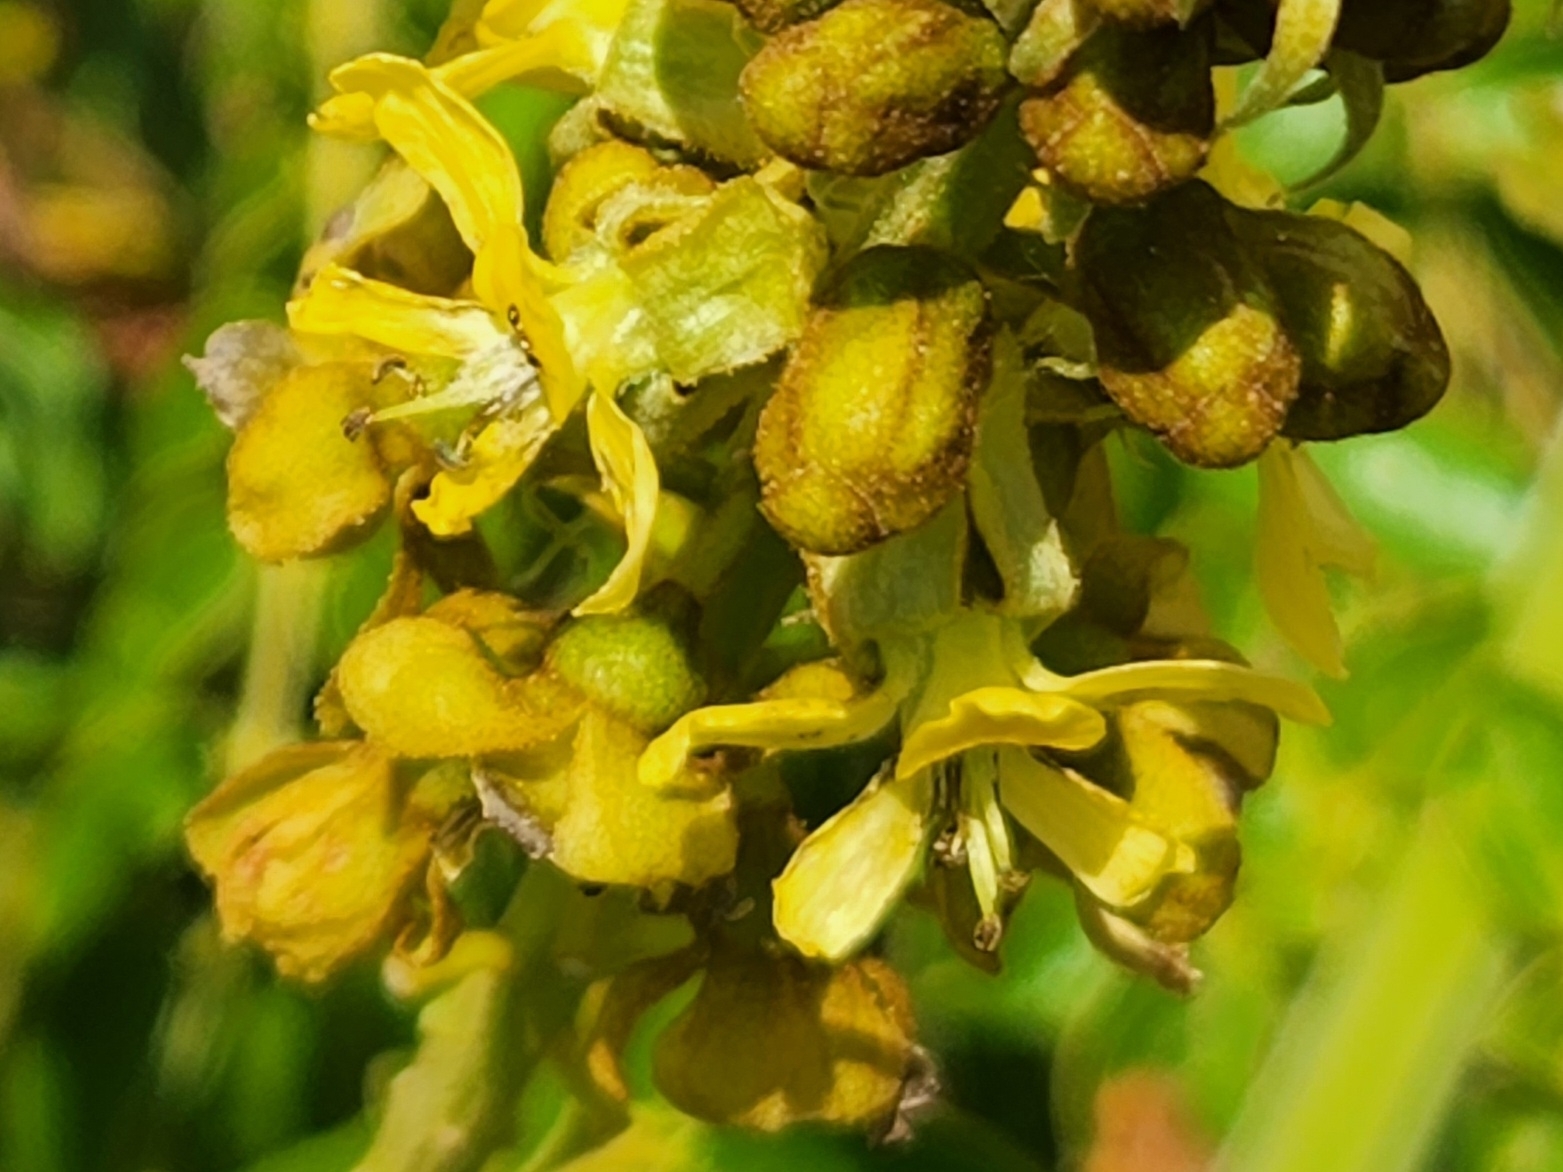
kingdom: Plantae
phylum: Tracheophyta
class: Magnoliopsida
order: Fabales
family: Fabaceae
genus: Guilandina
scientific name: Guilandina bonduc
